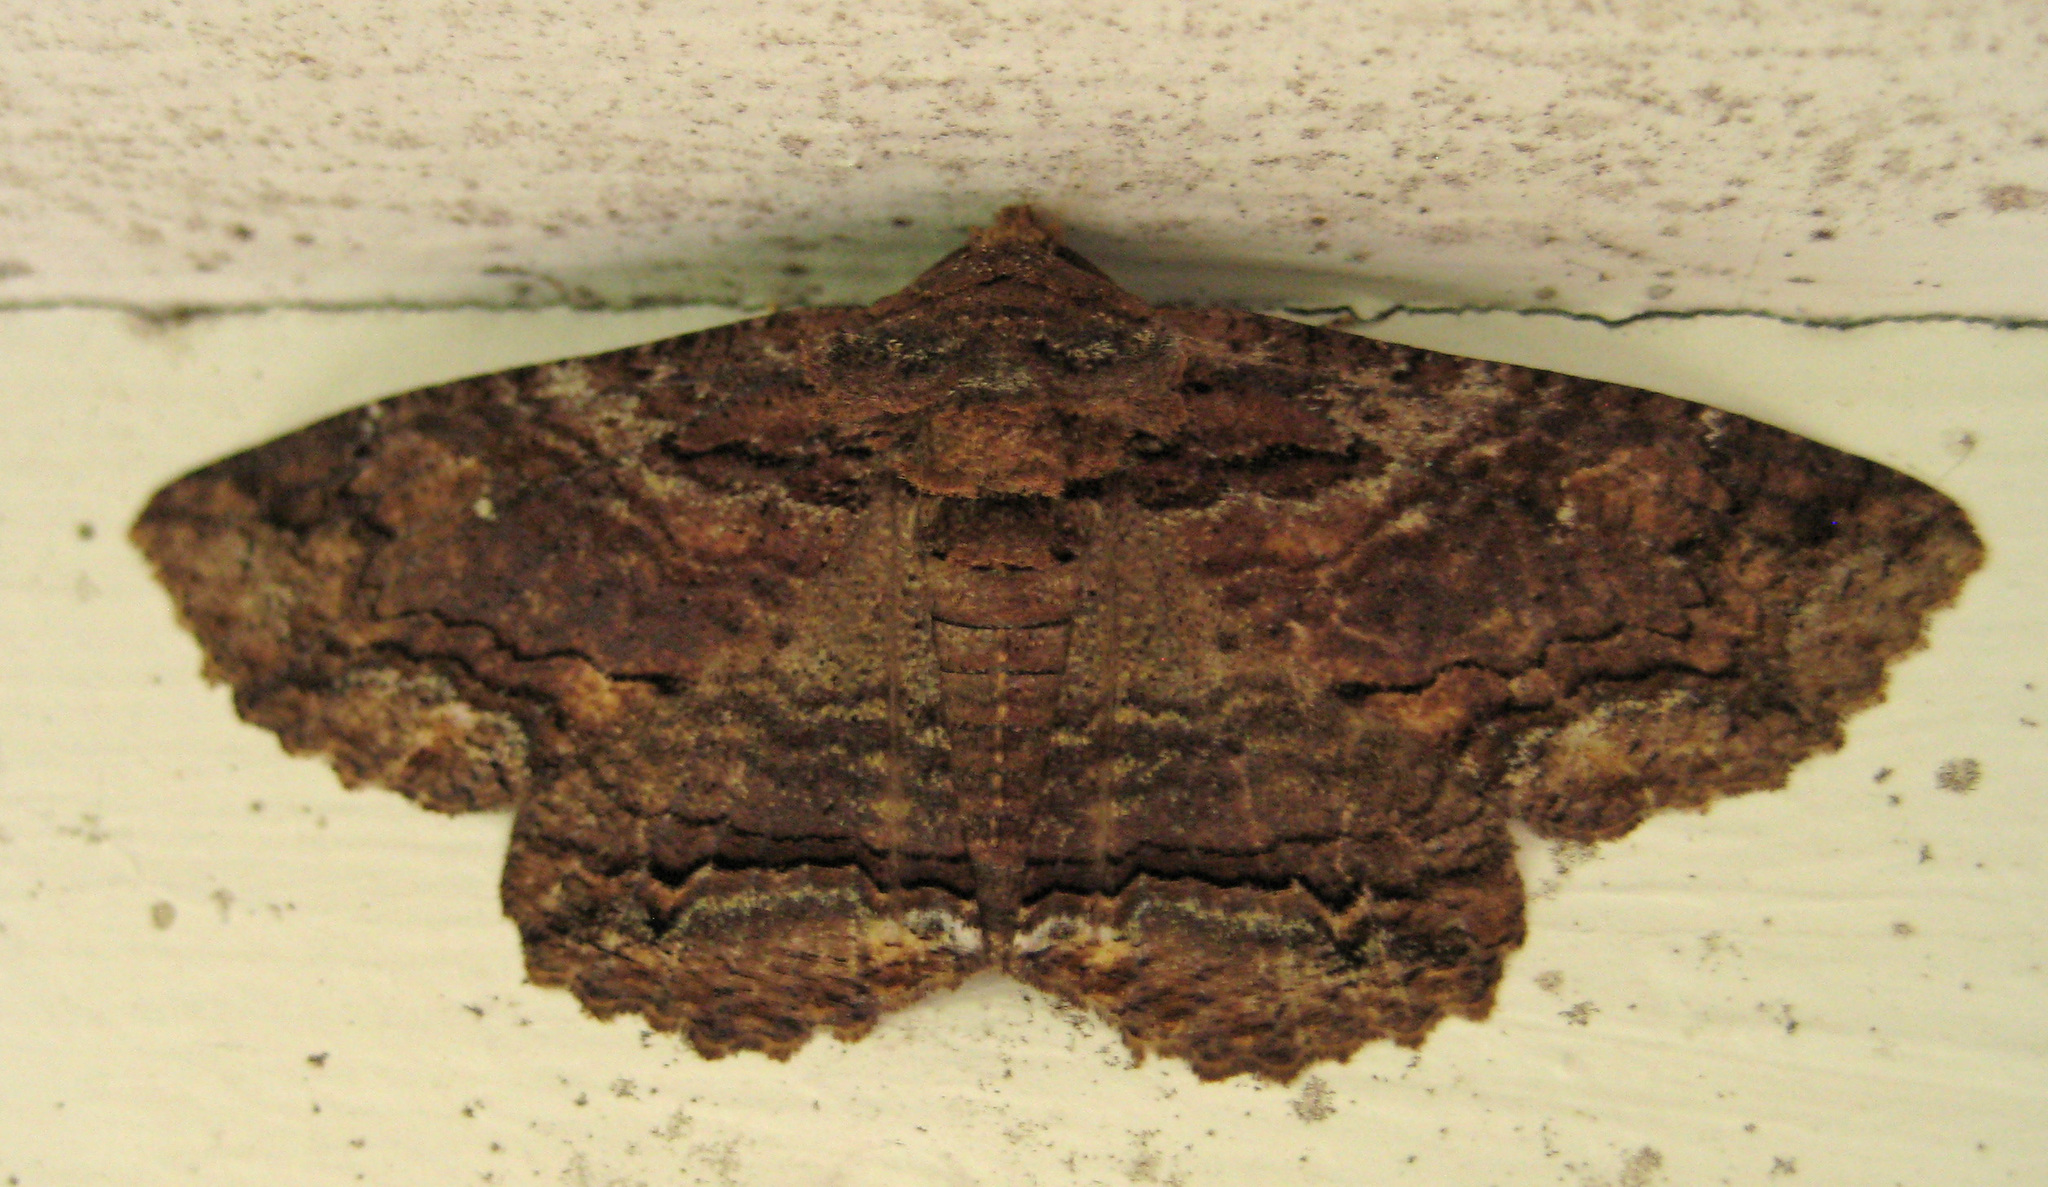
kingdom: Animalia
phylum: Arthropoda
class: Insecta
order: Lepidoptera
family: Erebidae
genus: Zale
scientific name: Zale lunata
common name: Lunate zale moth
